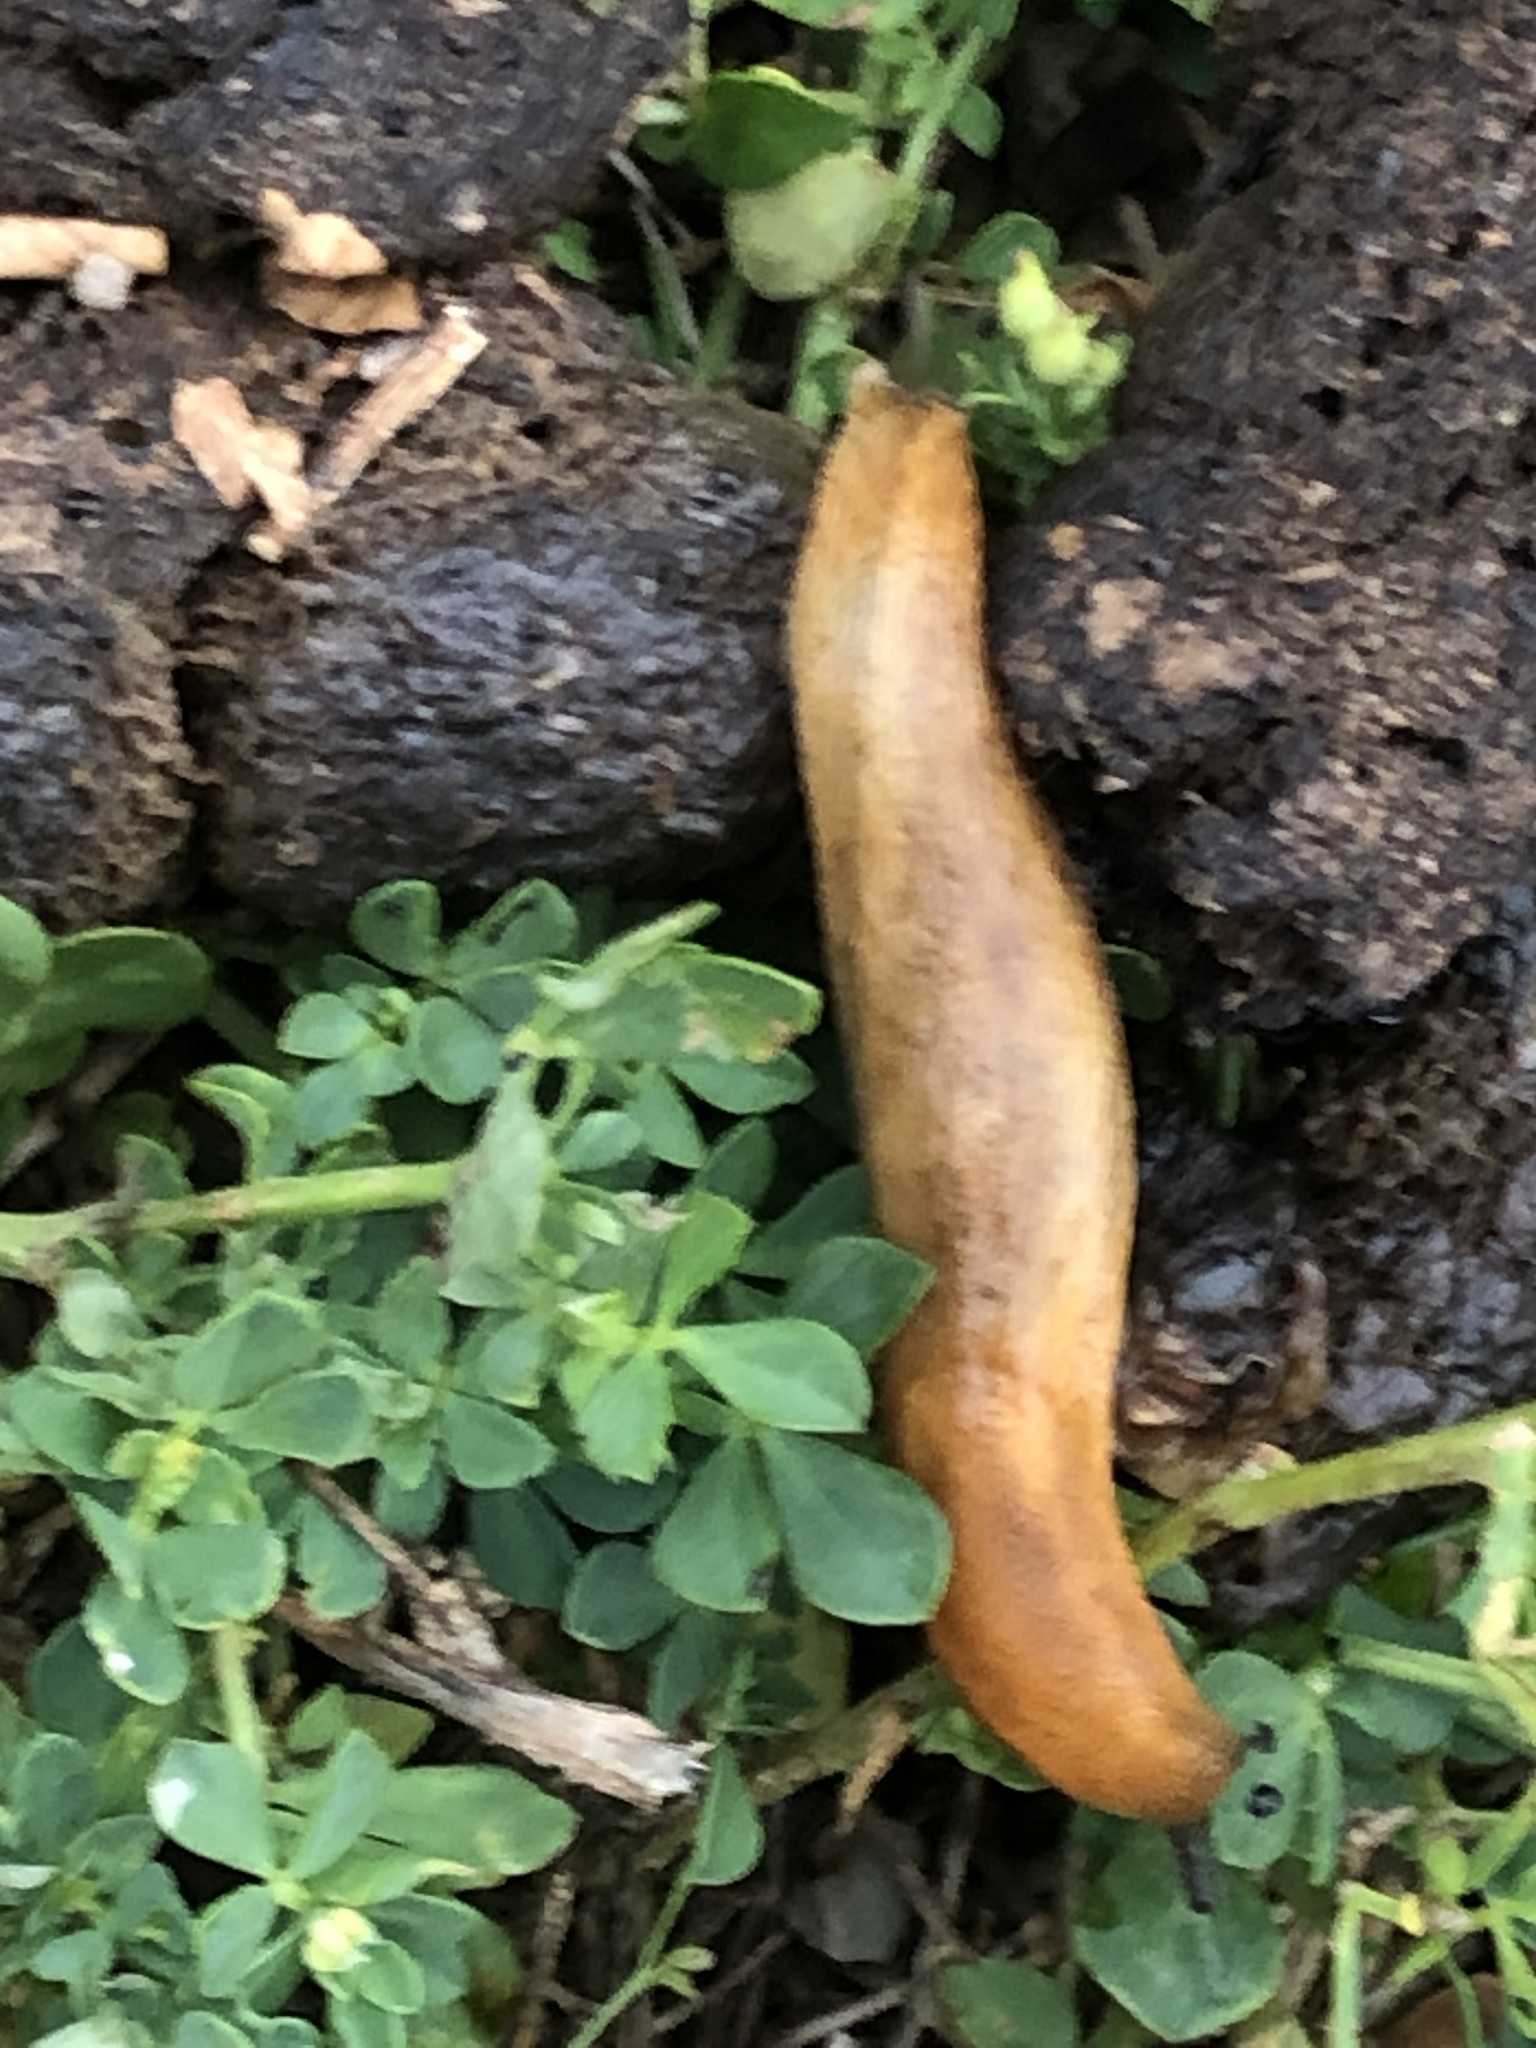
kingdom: Animalia
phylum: Mollusca
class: Gastropoda
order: Stylommatophora
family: Arionidae
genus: Arion
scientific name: Arion subfuscus
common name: Dusky arion
